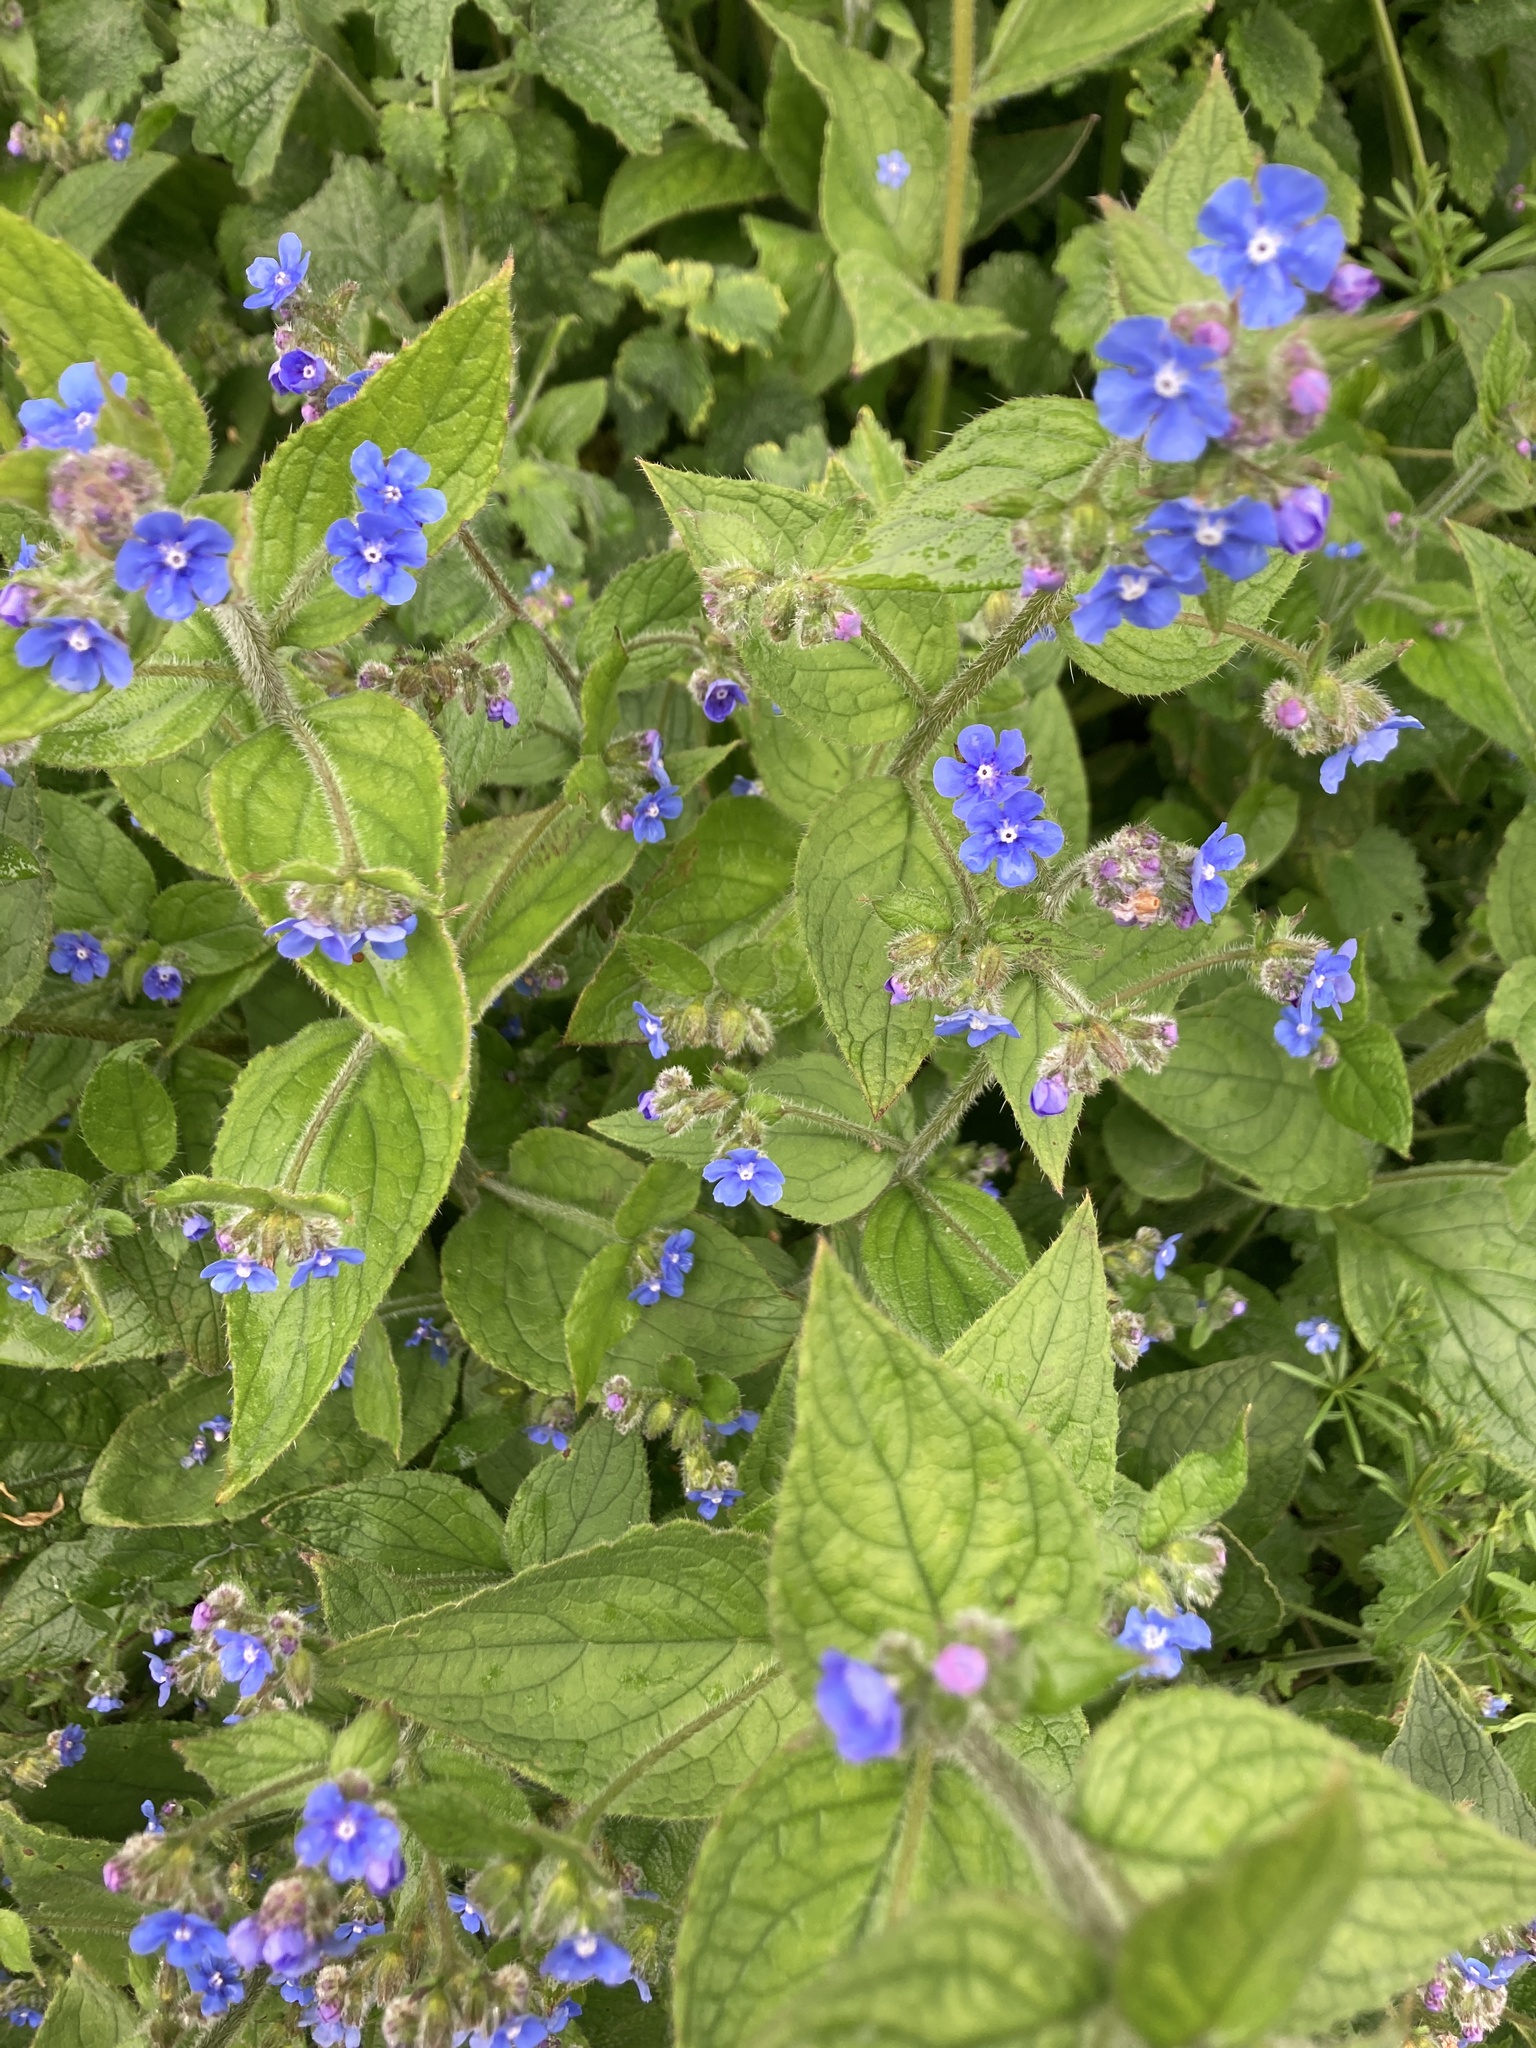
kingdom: Plantae
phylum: Tracheophyta
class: Magnoliopsida
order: Boraginales
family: Boraginaceae
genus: Pentaglottis
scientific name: Pentaglottis sempervirens
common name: Green alkanet
